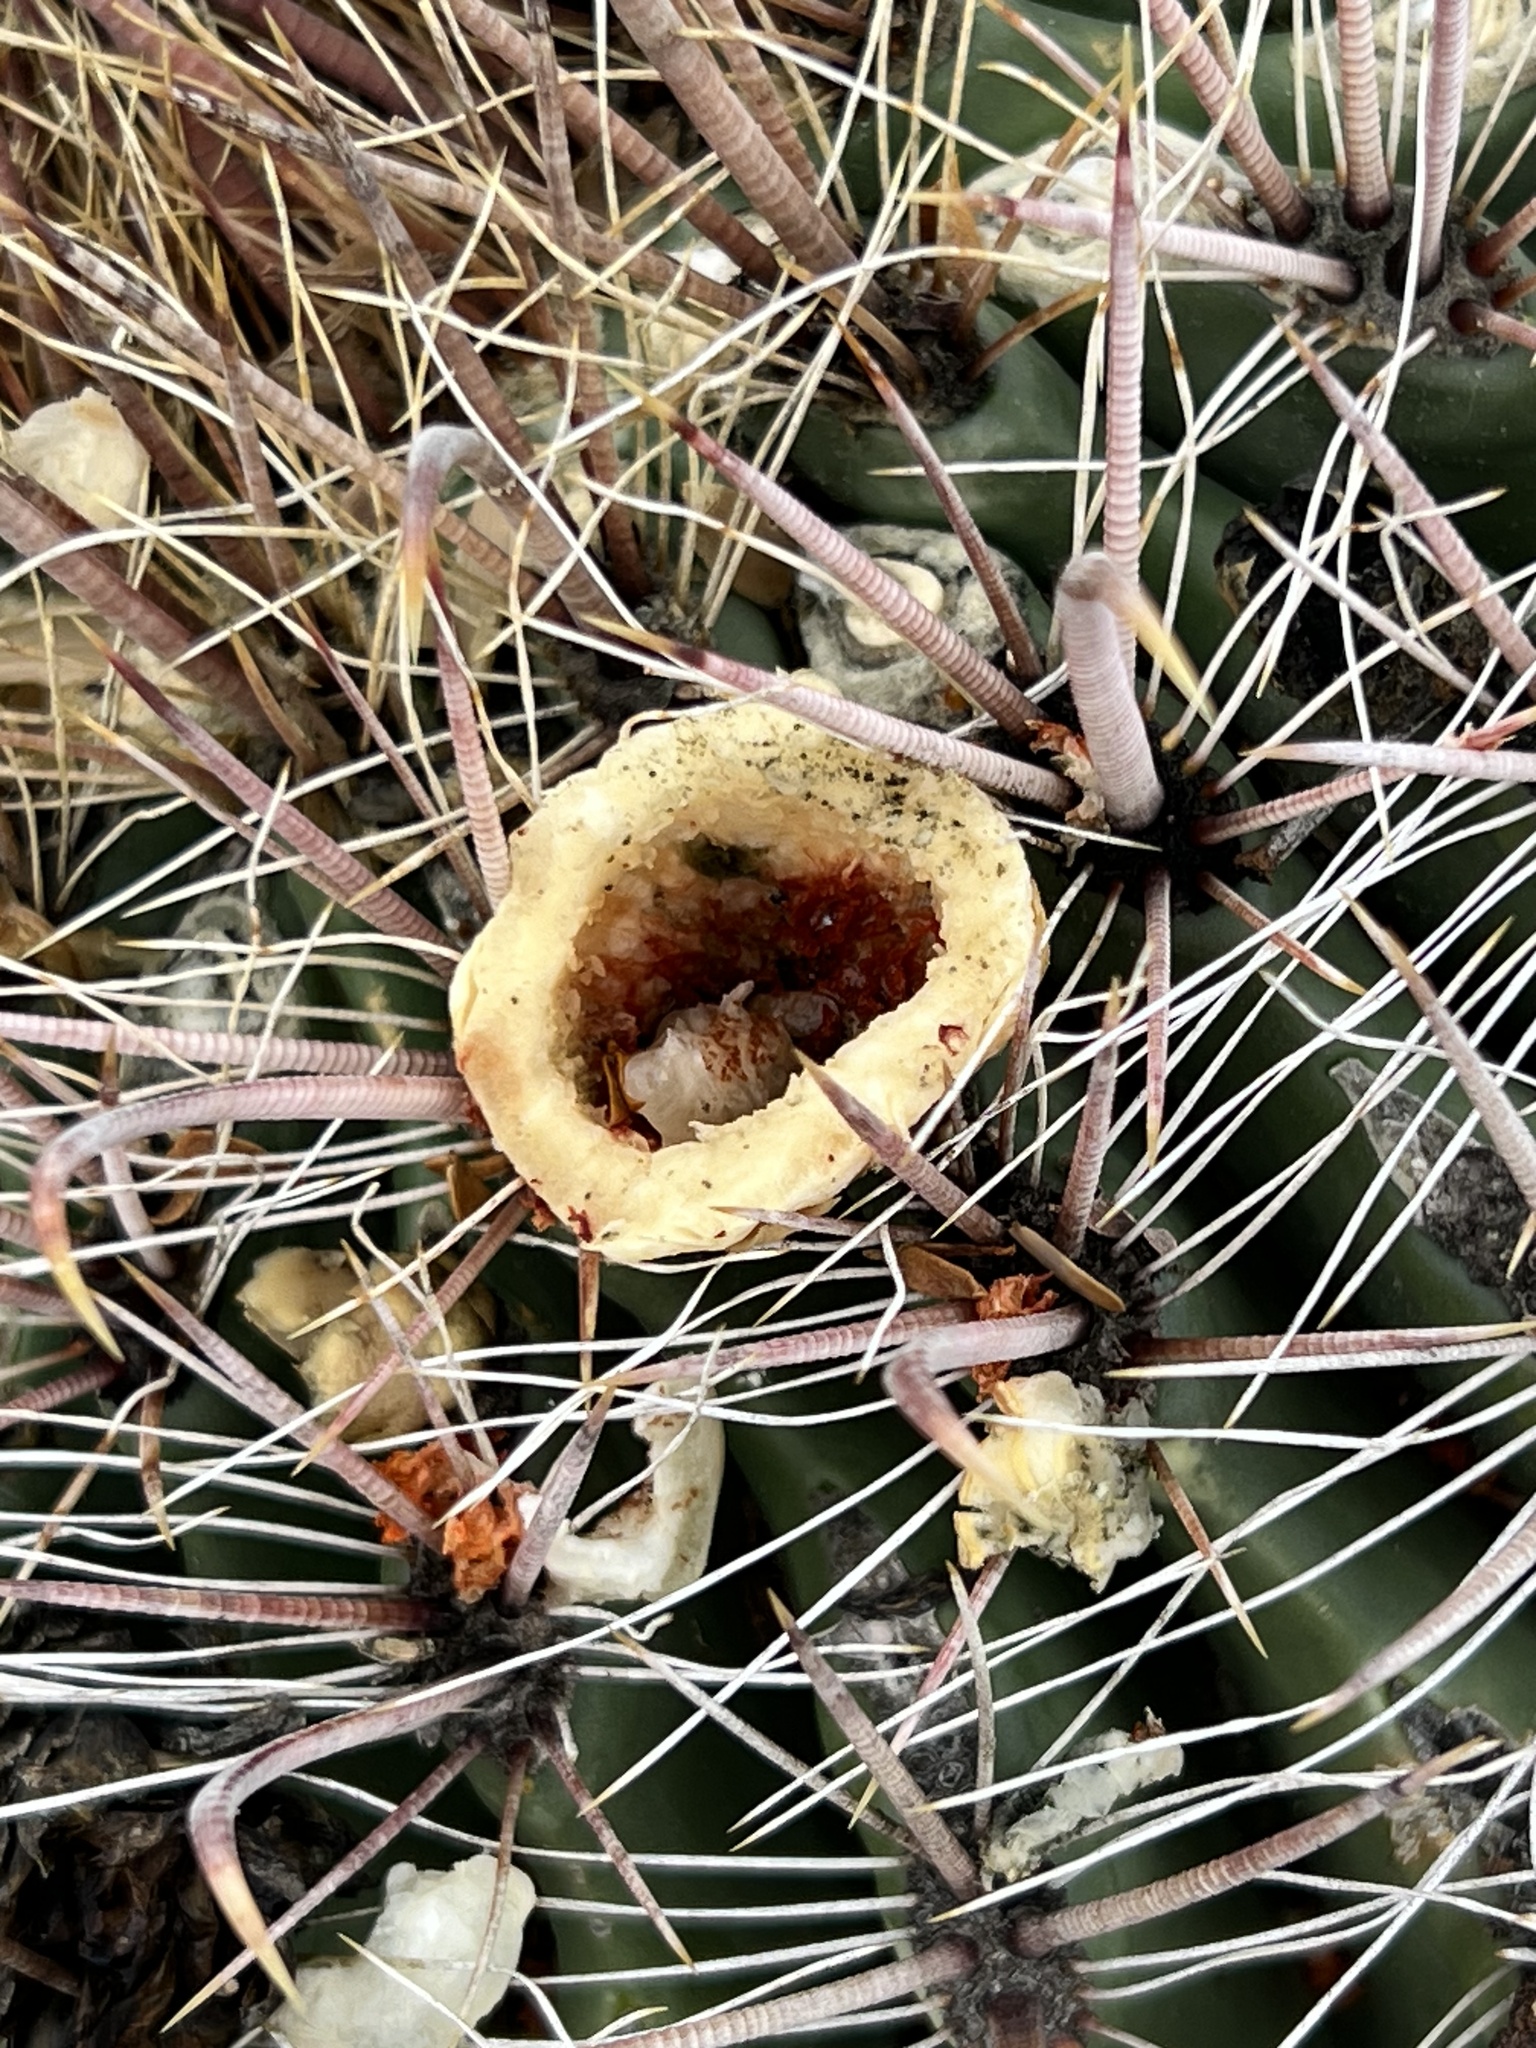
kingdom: Plantae
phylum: Tracheophyta
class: Magnoliopsida
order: Caryophyllales
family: Cactaceae
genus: Ferocactus
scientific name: Ferocactus wislizeni
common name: Candy barrel cactus
